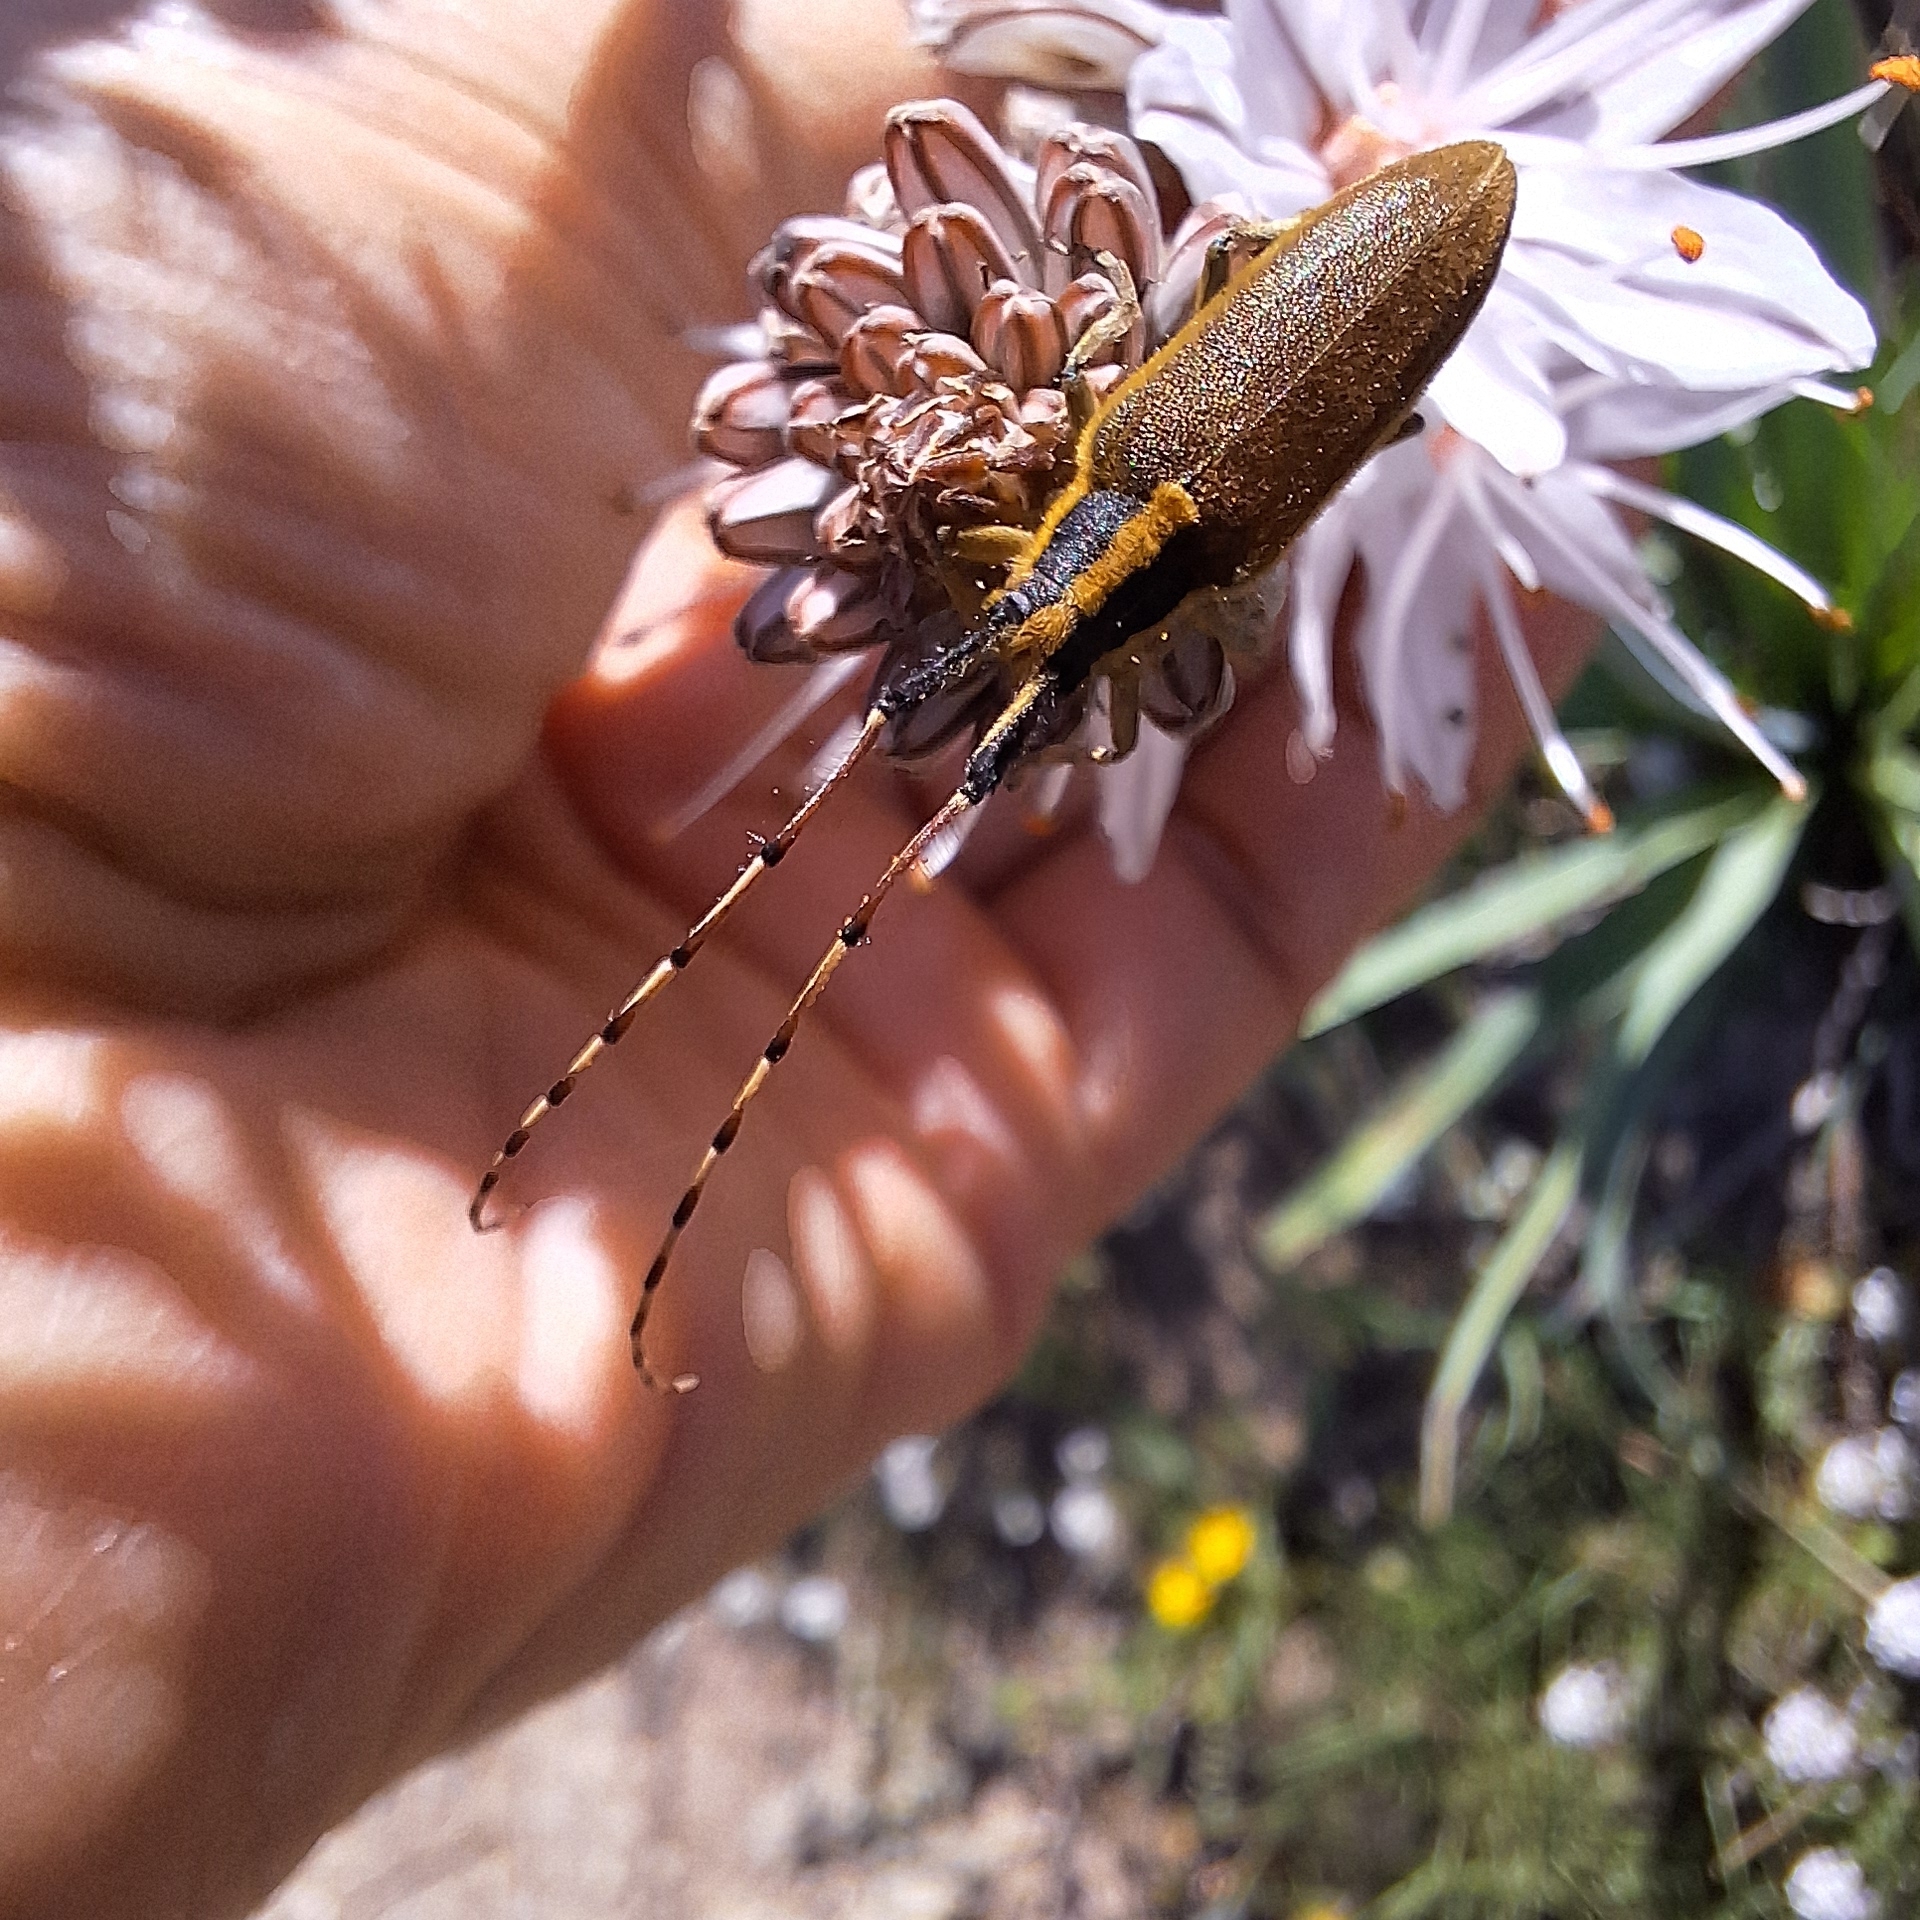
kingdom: Animalia
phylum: Arthropoda
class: Insecta
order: Coleoptera
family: Cerambycidae
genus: Agapanthia
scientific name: Agapanthia asphodeli
